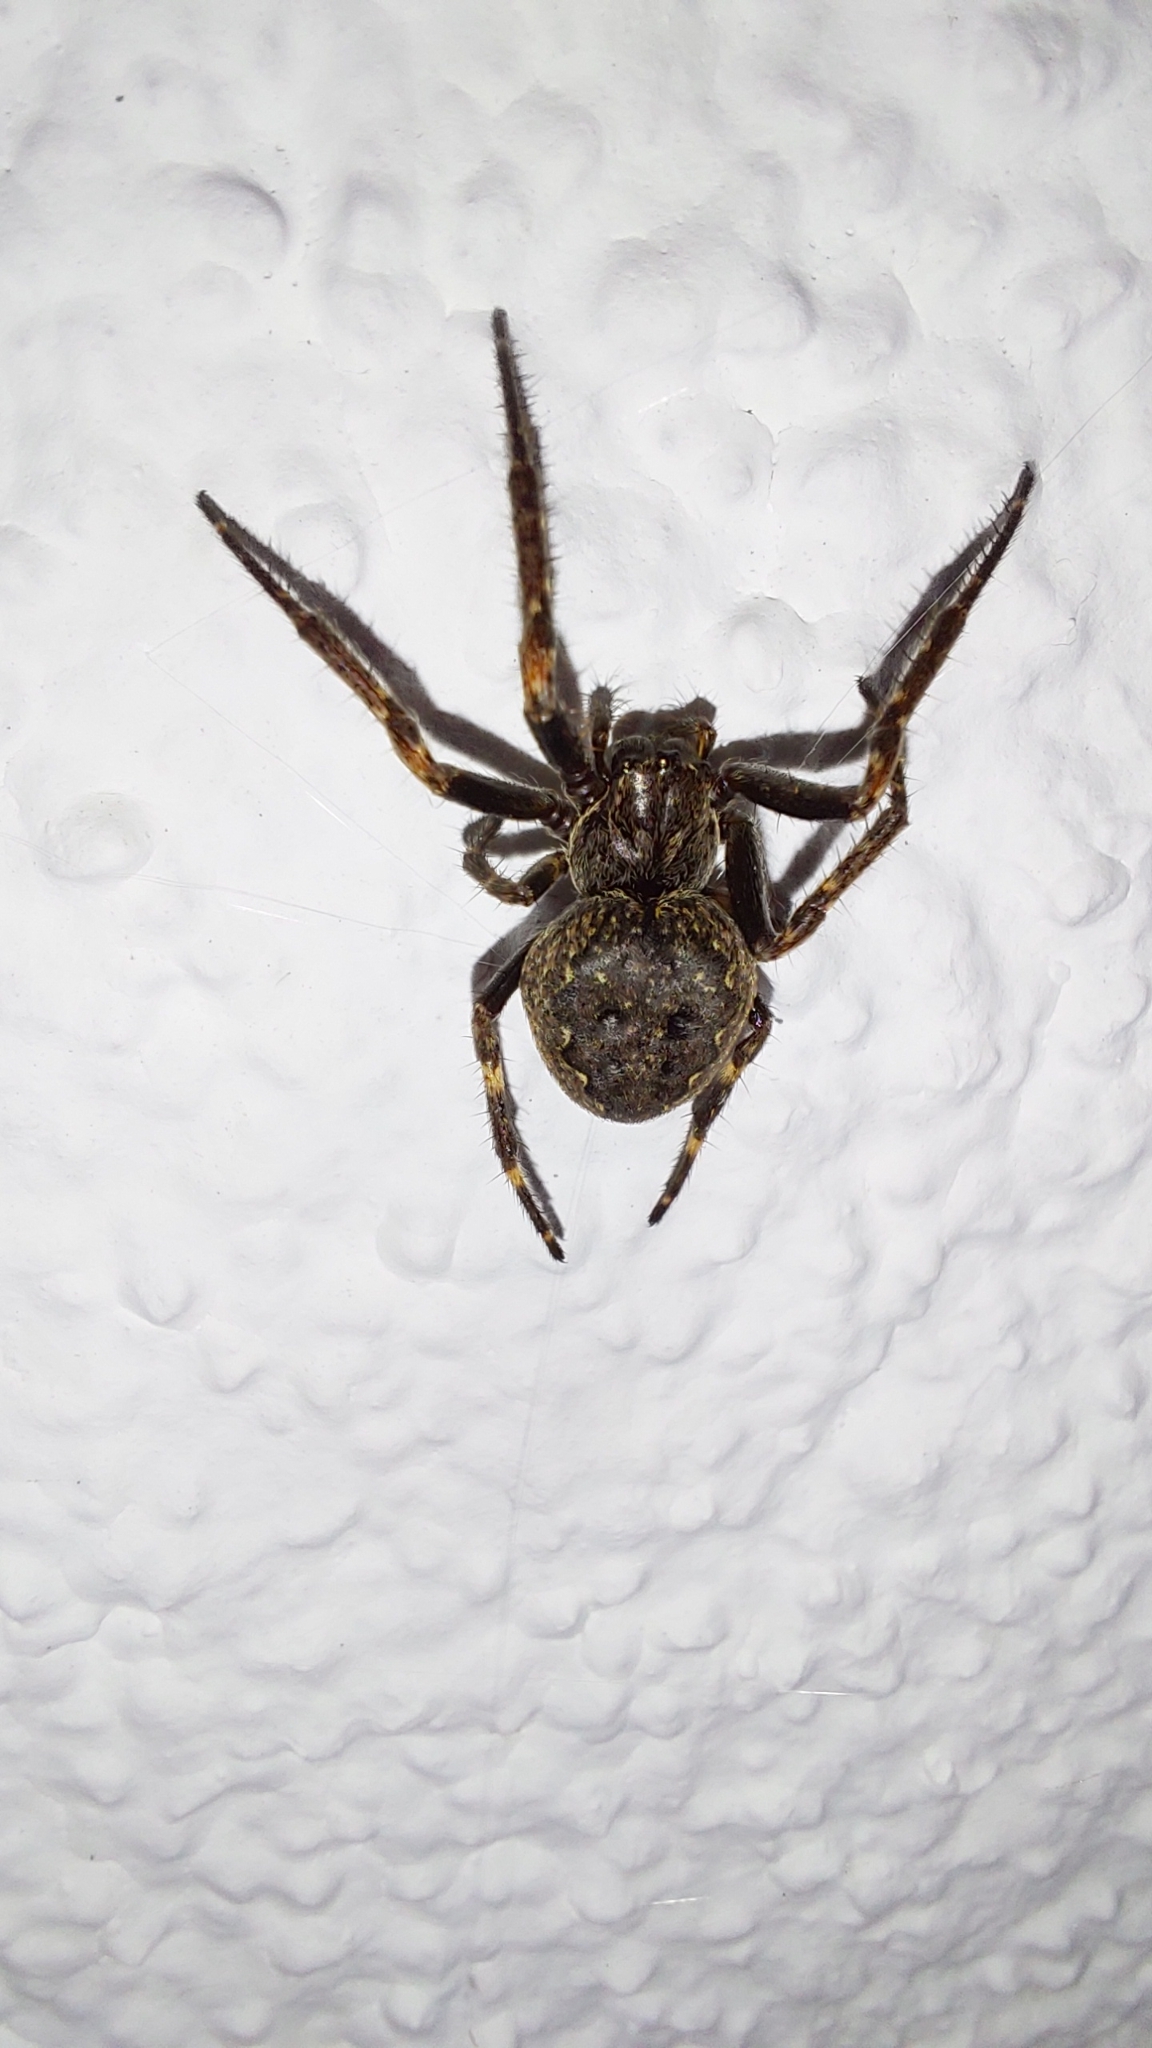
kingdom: Animalia
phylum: Arthropoda
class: Arachnida
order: Araneae
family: Araneidae
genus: Nuctenea
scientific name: Nuctenea umbratica
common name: Toad spider
